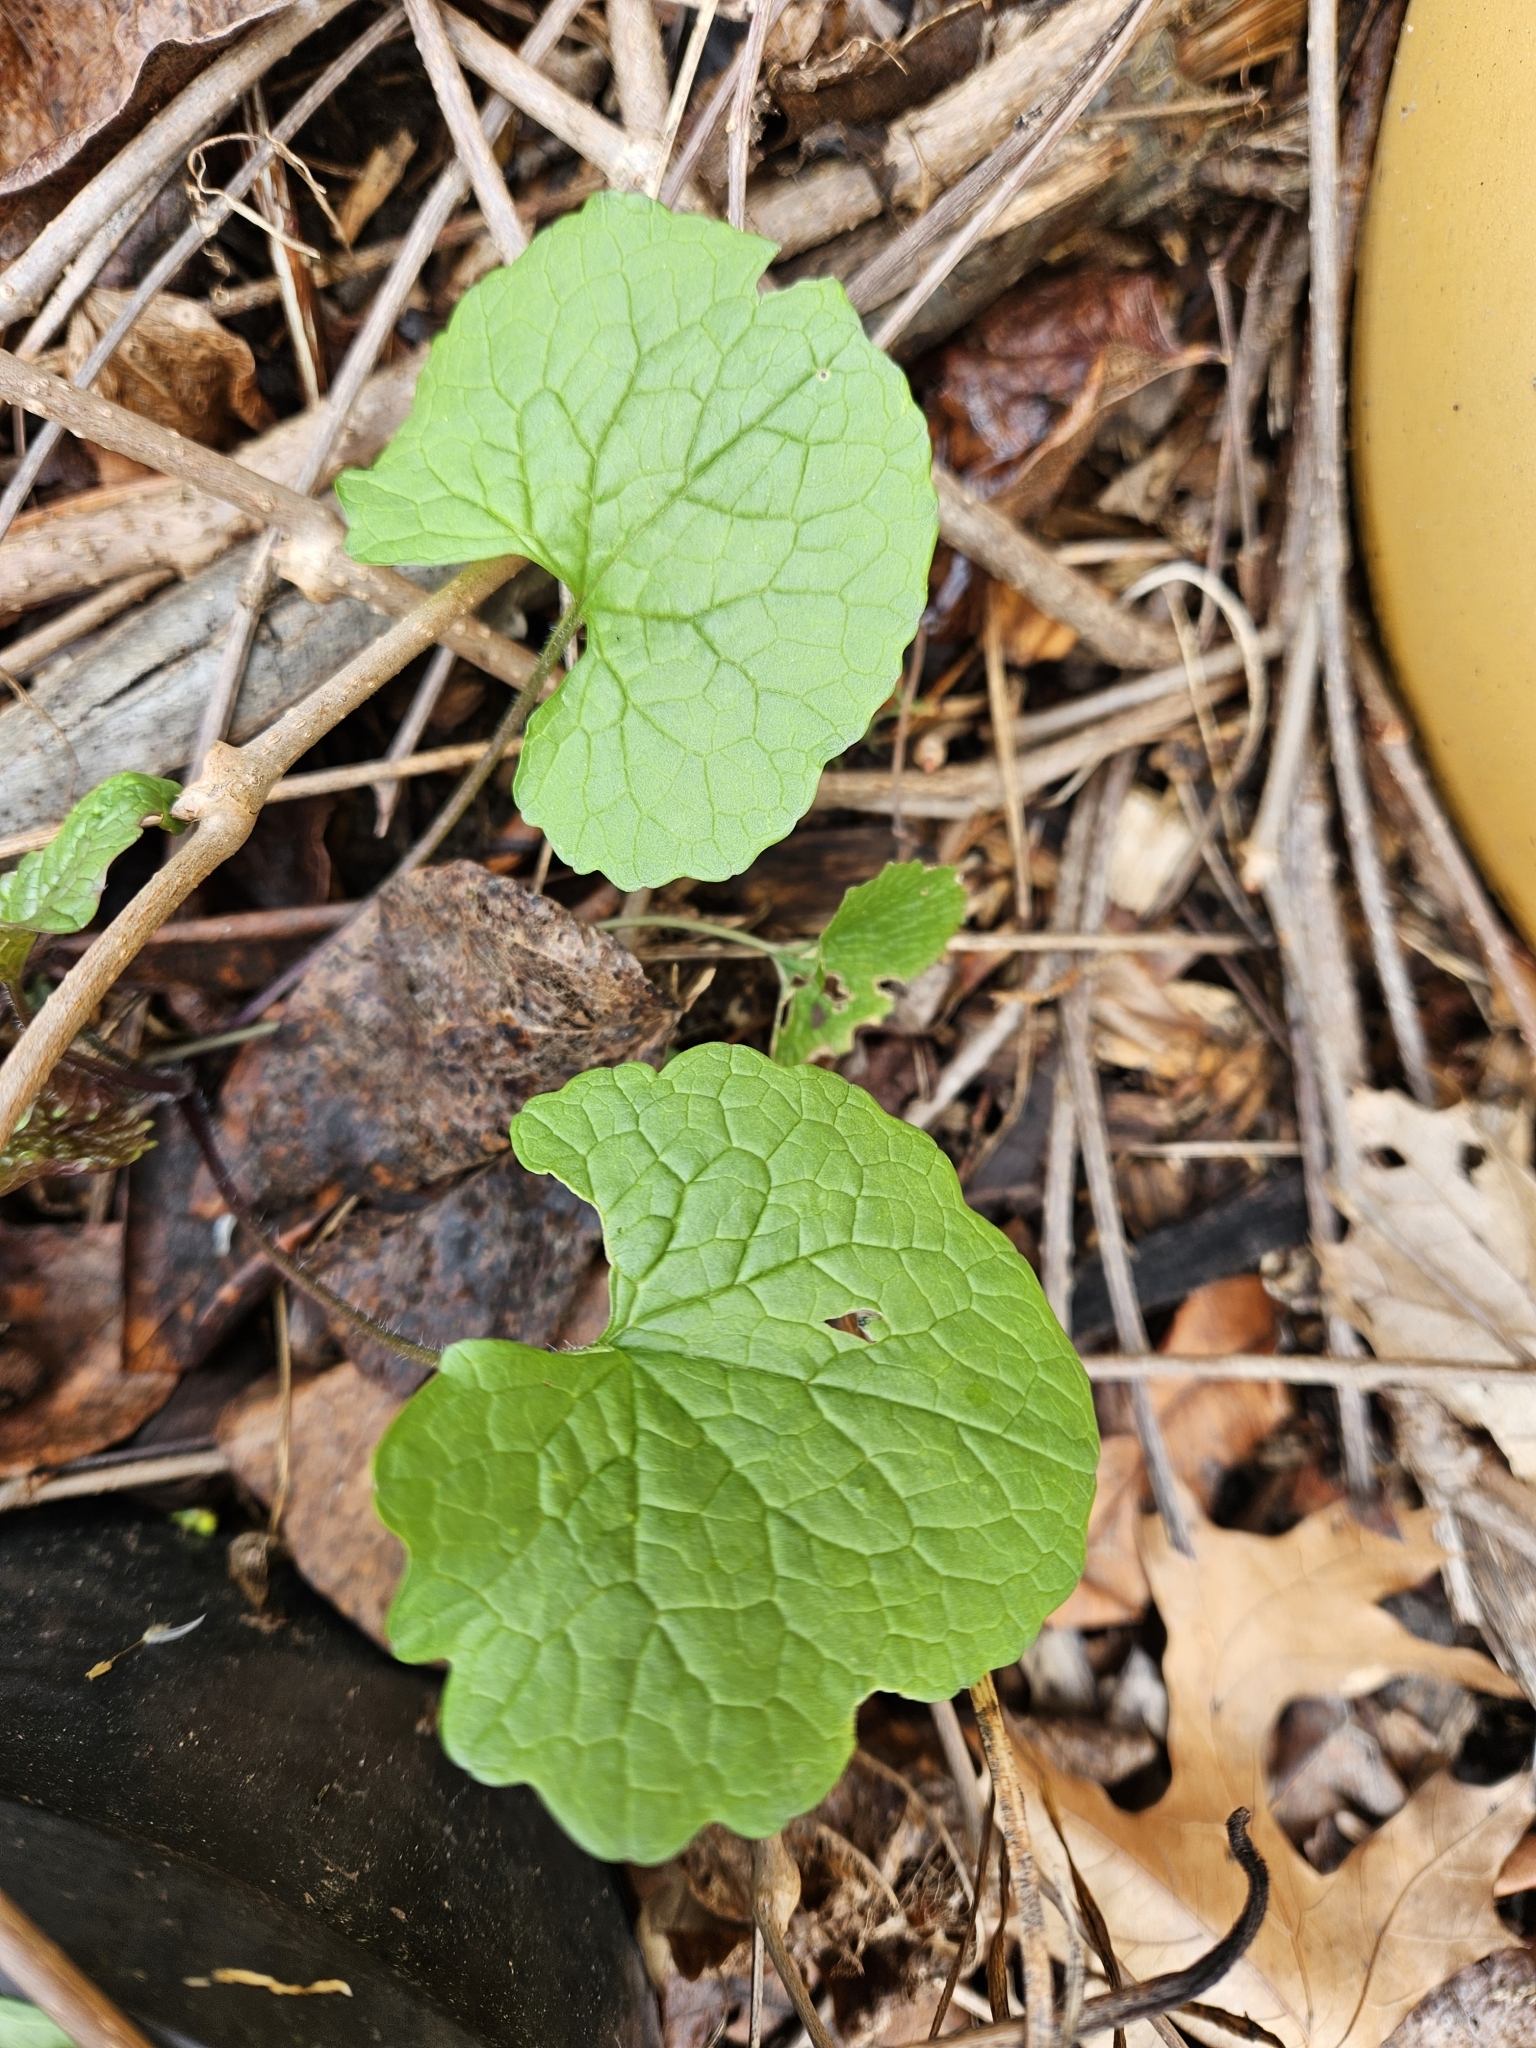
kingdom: Plantae
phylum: Tracheophyta
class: Magnoliopsida
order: Brassicales
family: Brassicaceae
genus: Alliaria
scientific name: Alliaria petiolata
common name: Garlic mustard
